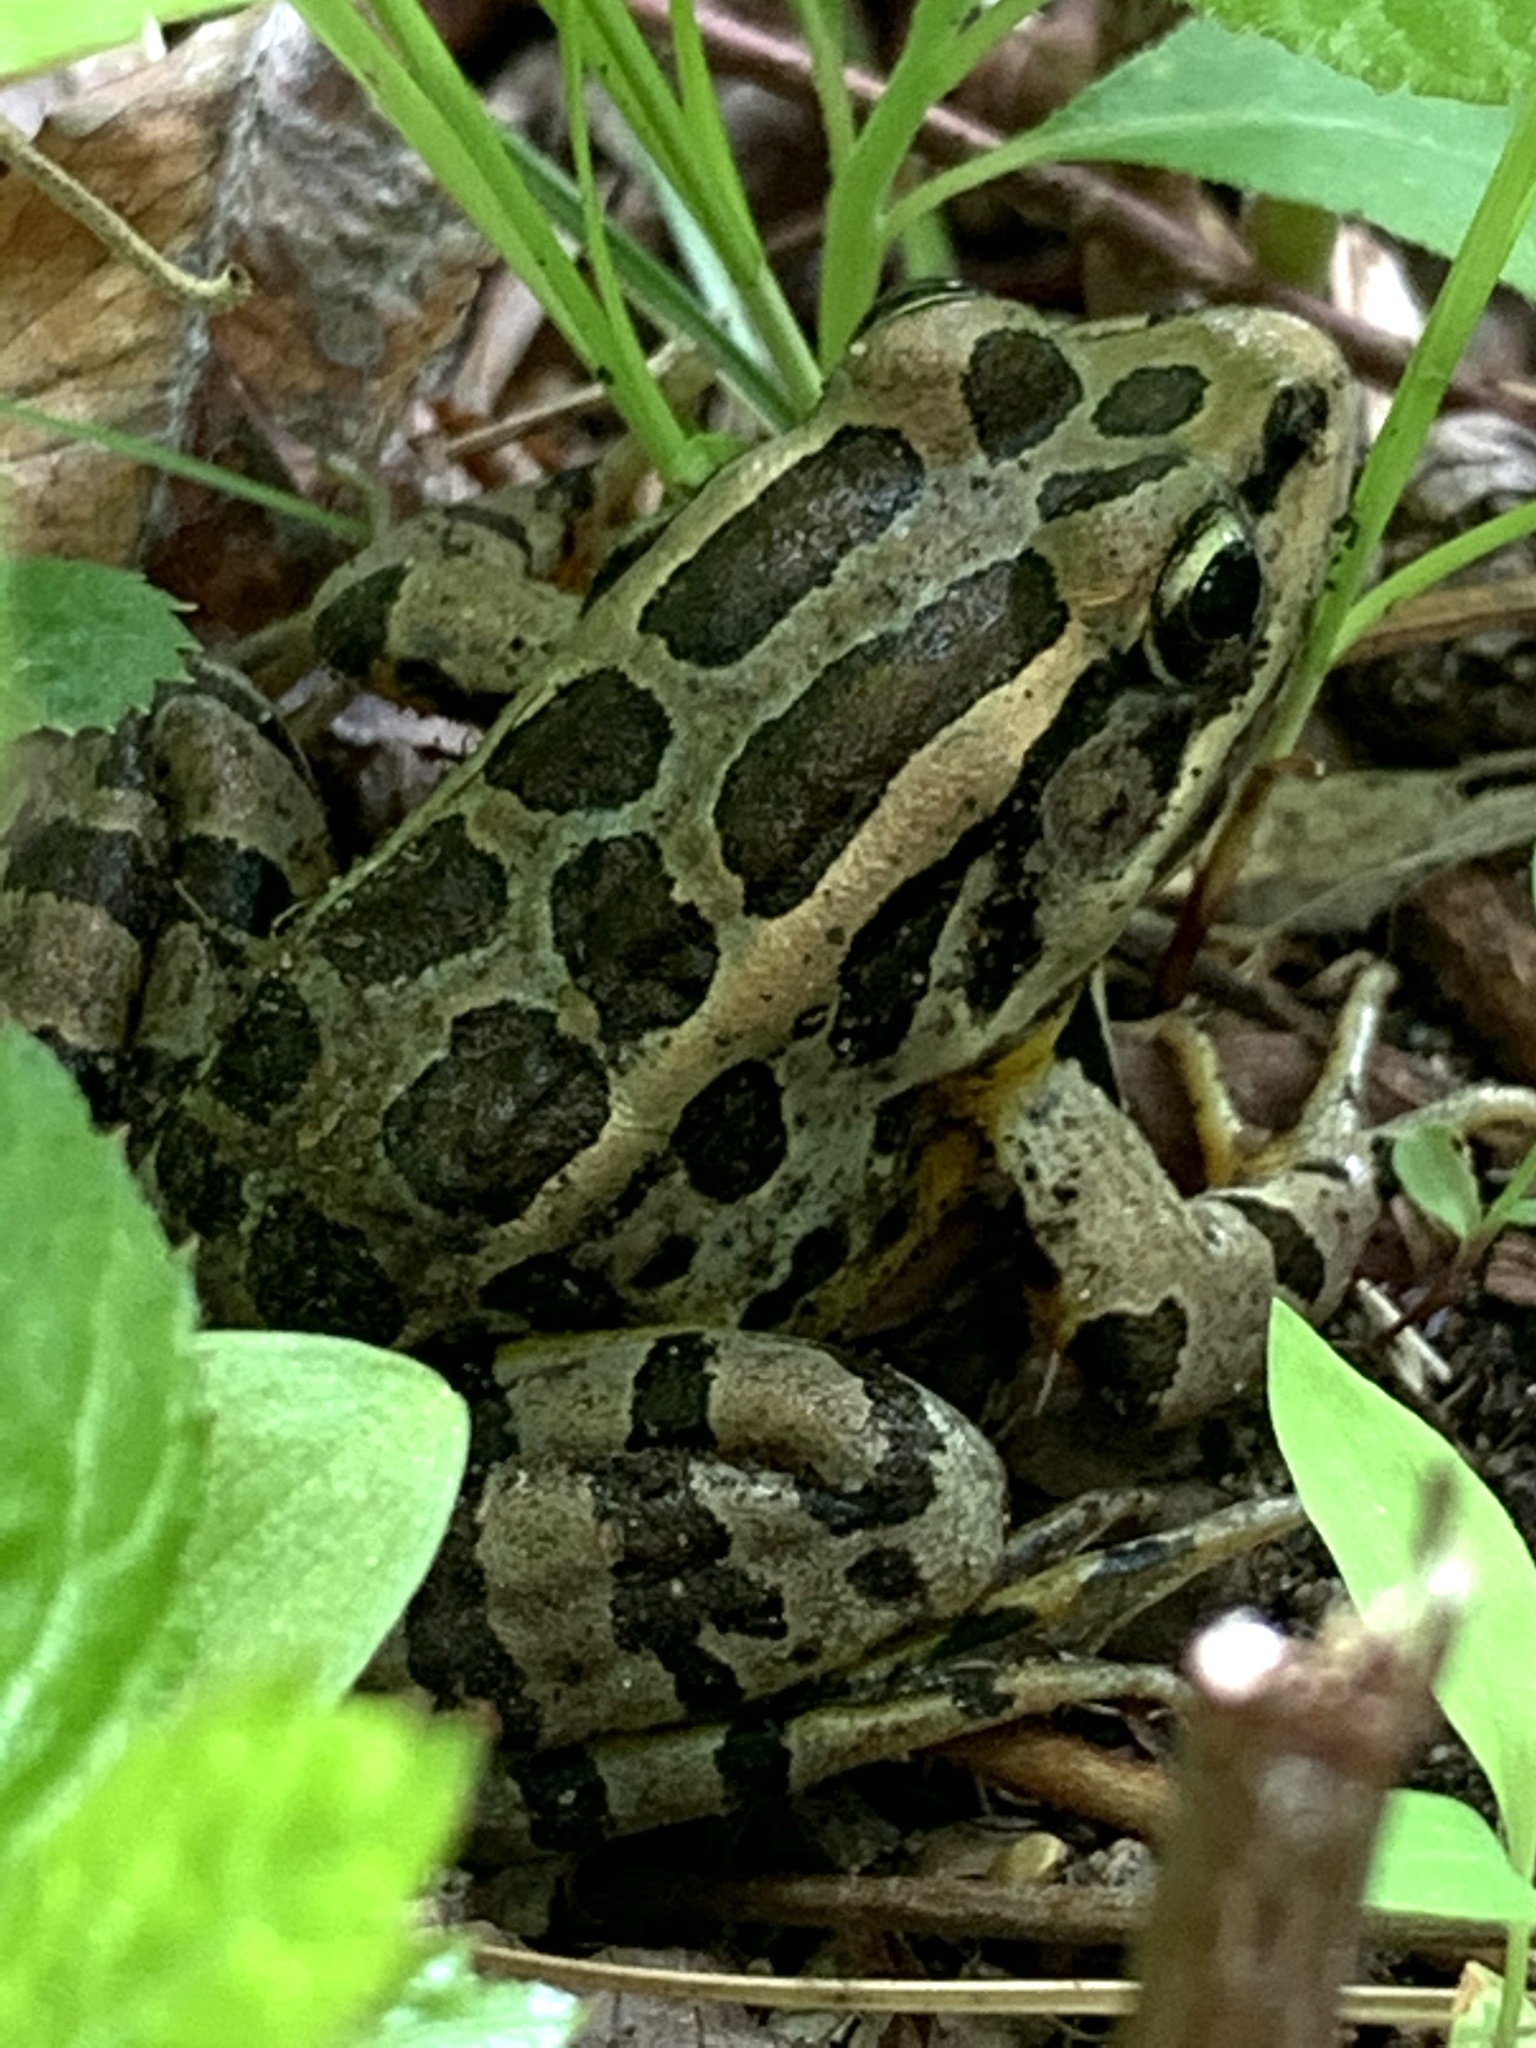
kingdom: Animalia
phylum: Chordata
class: Amphibia
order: Anura
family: Ranidae
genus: Lithobates
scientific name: Lithobates palustris
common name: Pickerel frog
